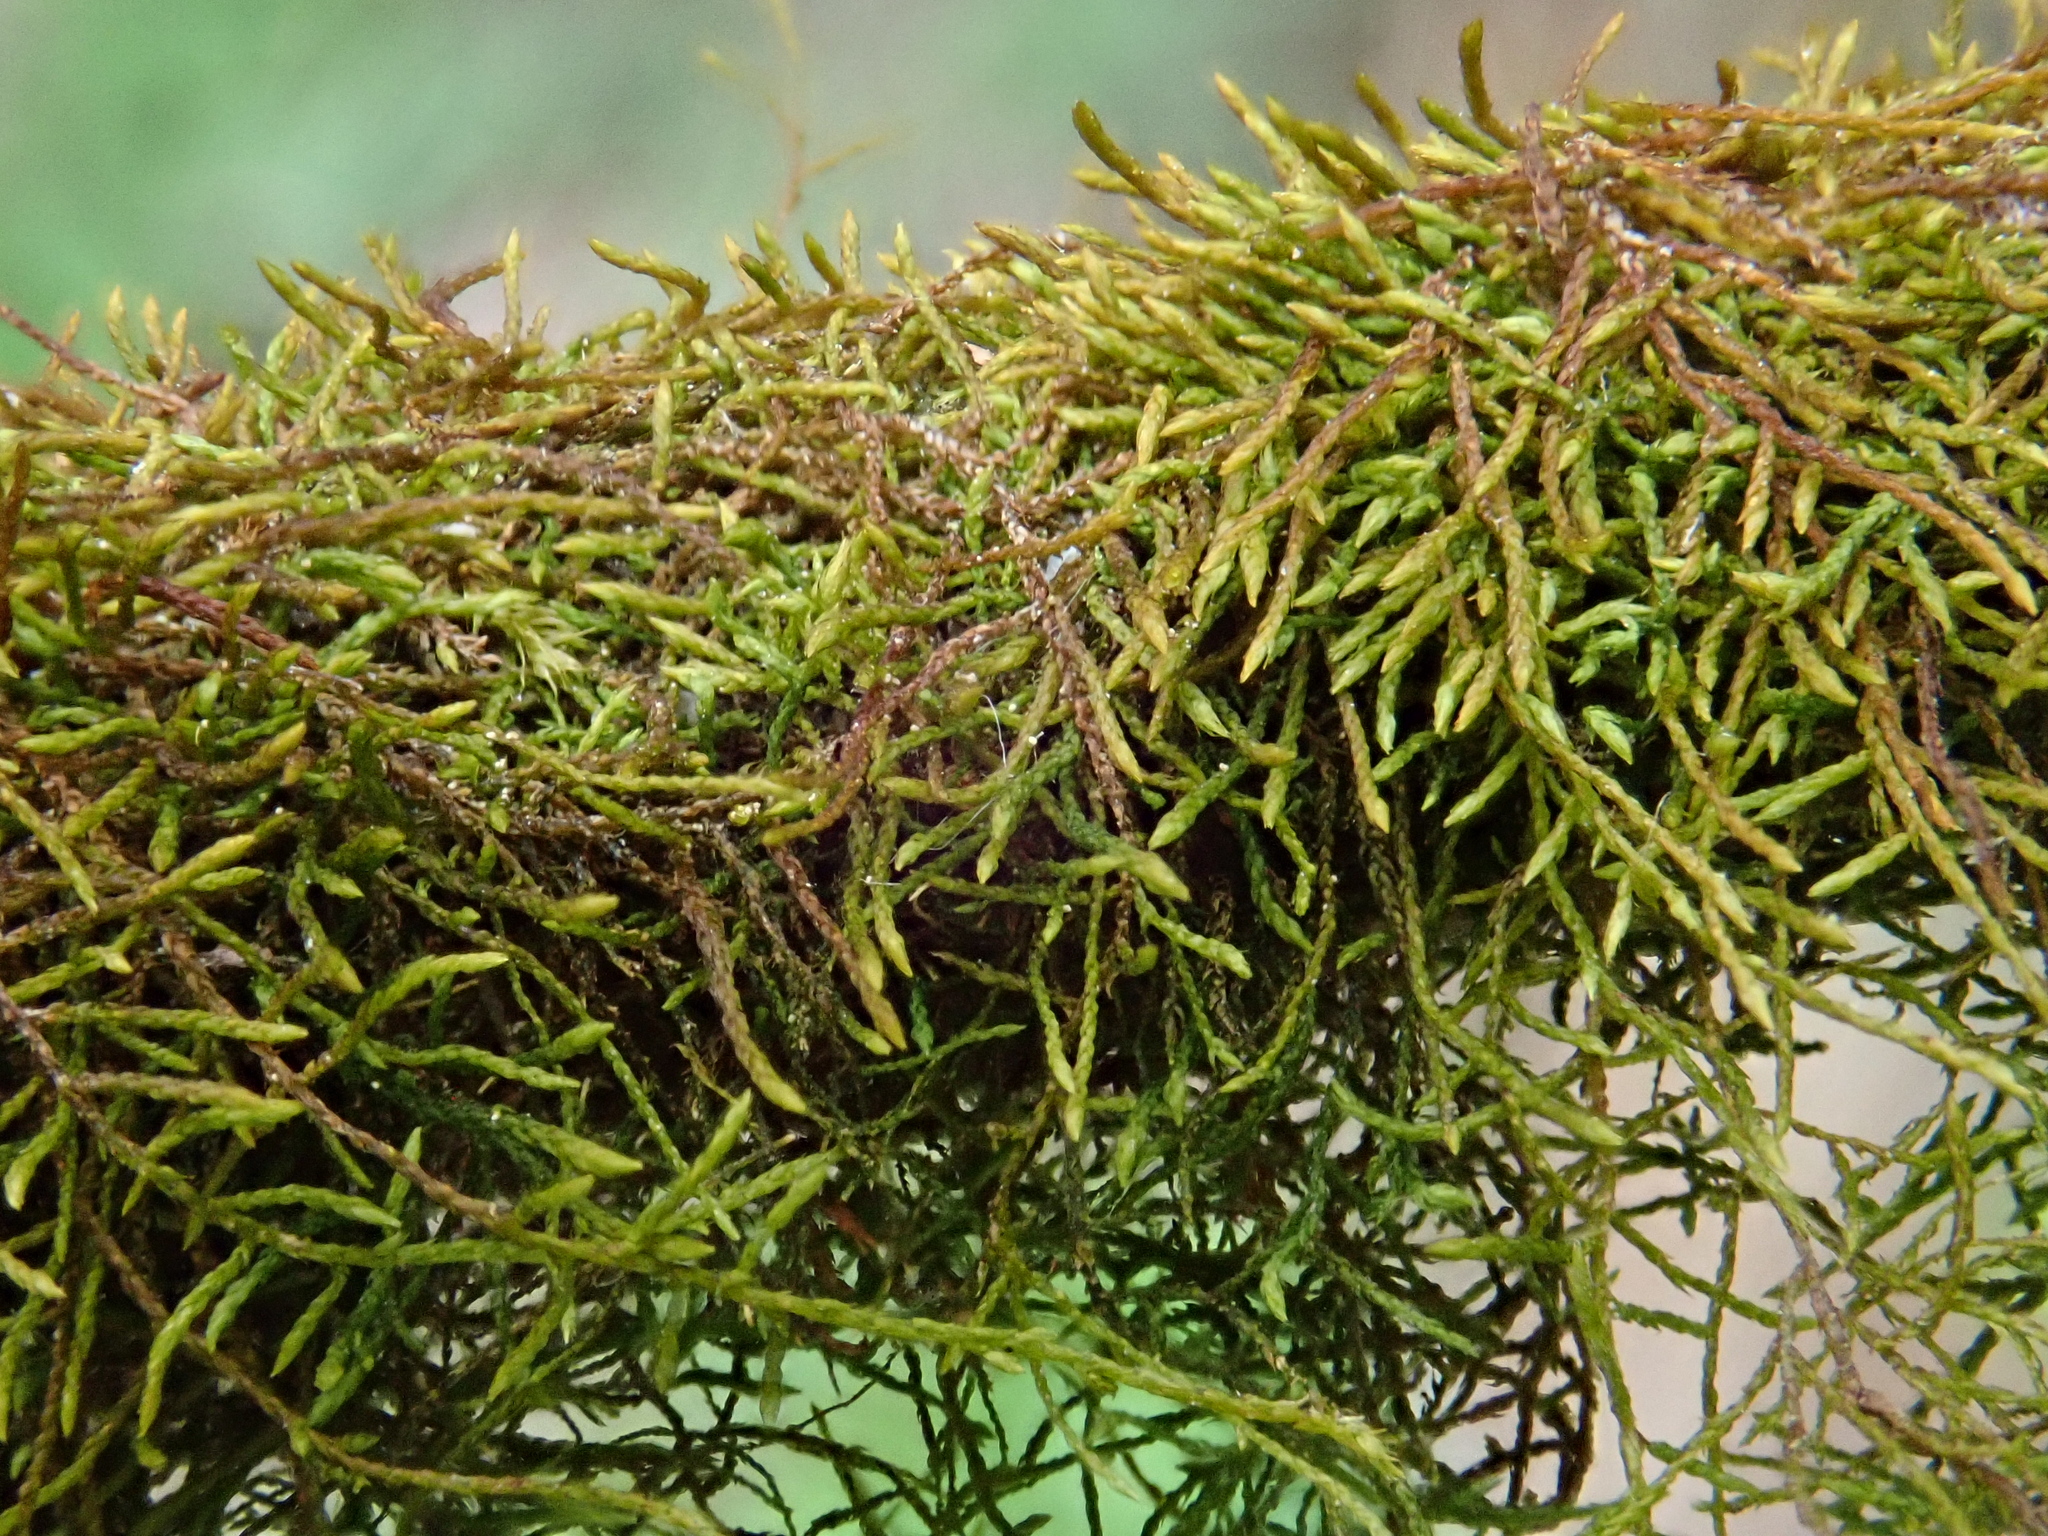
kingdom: Plantae
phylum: Bryophyta
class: Bryopsida
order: Hypnales
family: Pseudoleskeellaceae
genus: Pseudoleskeella
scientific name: Pseudoleskeella catenulata
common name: Chained leskea
